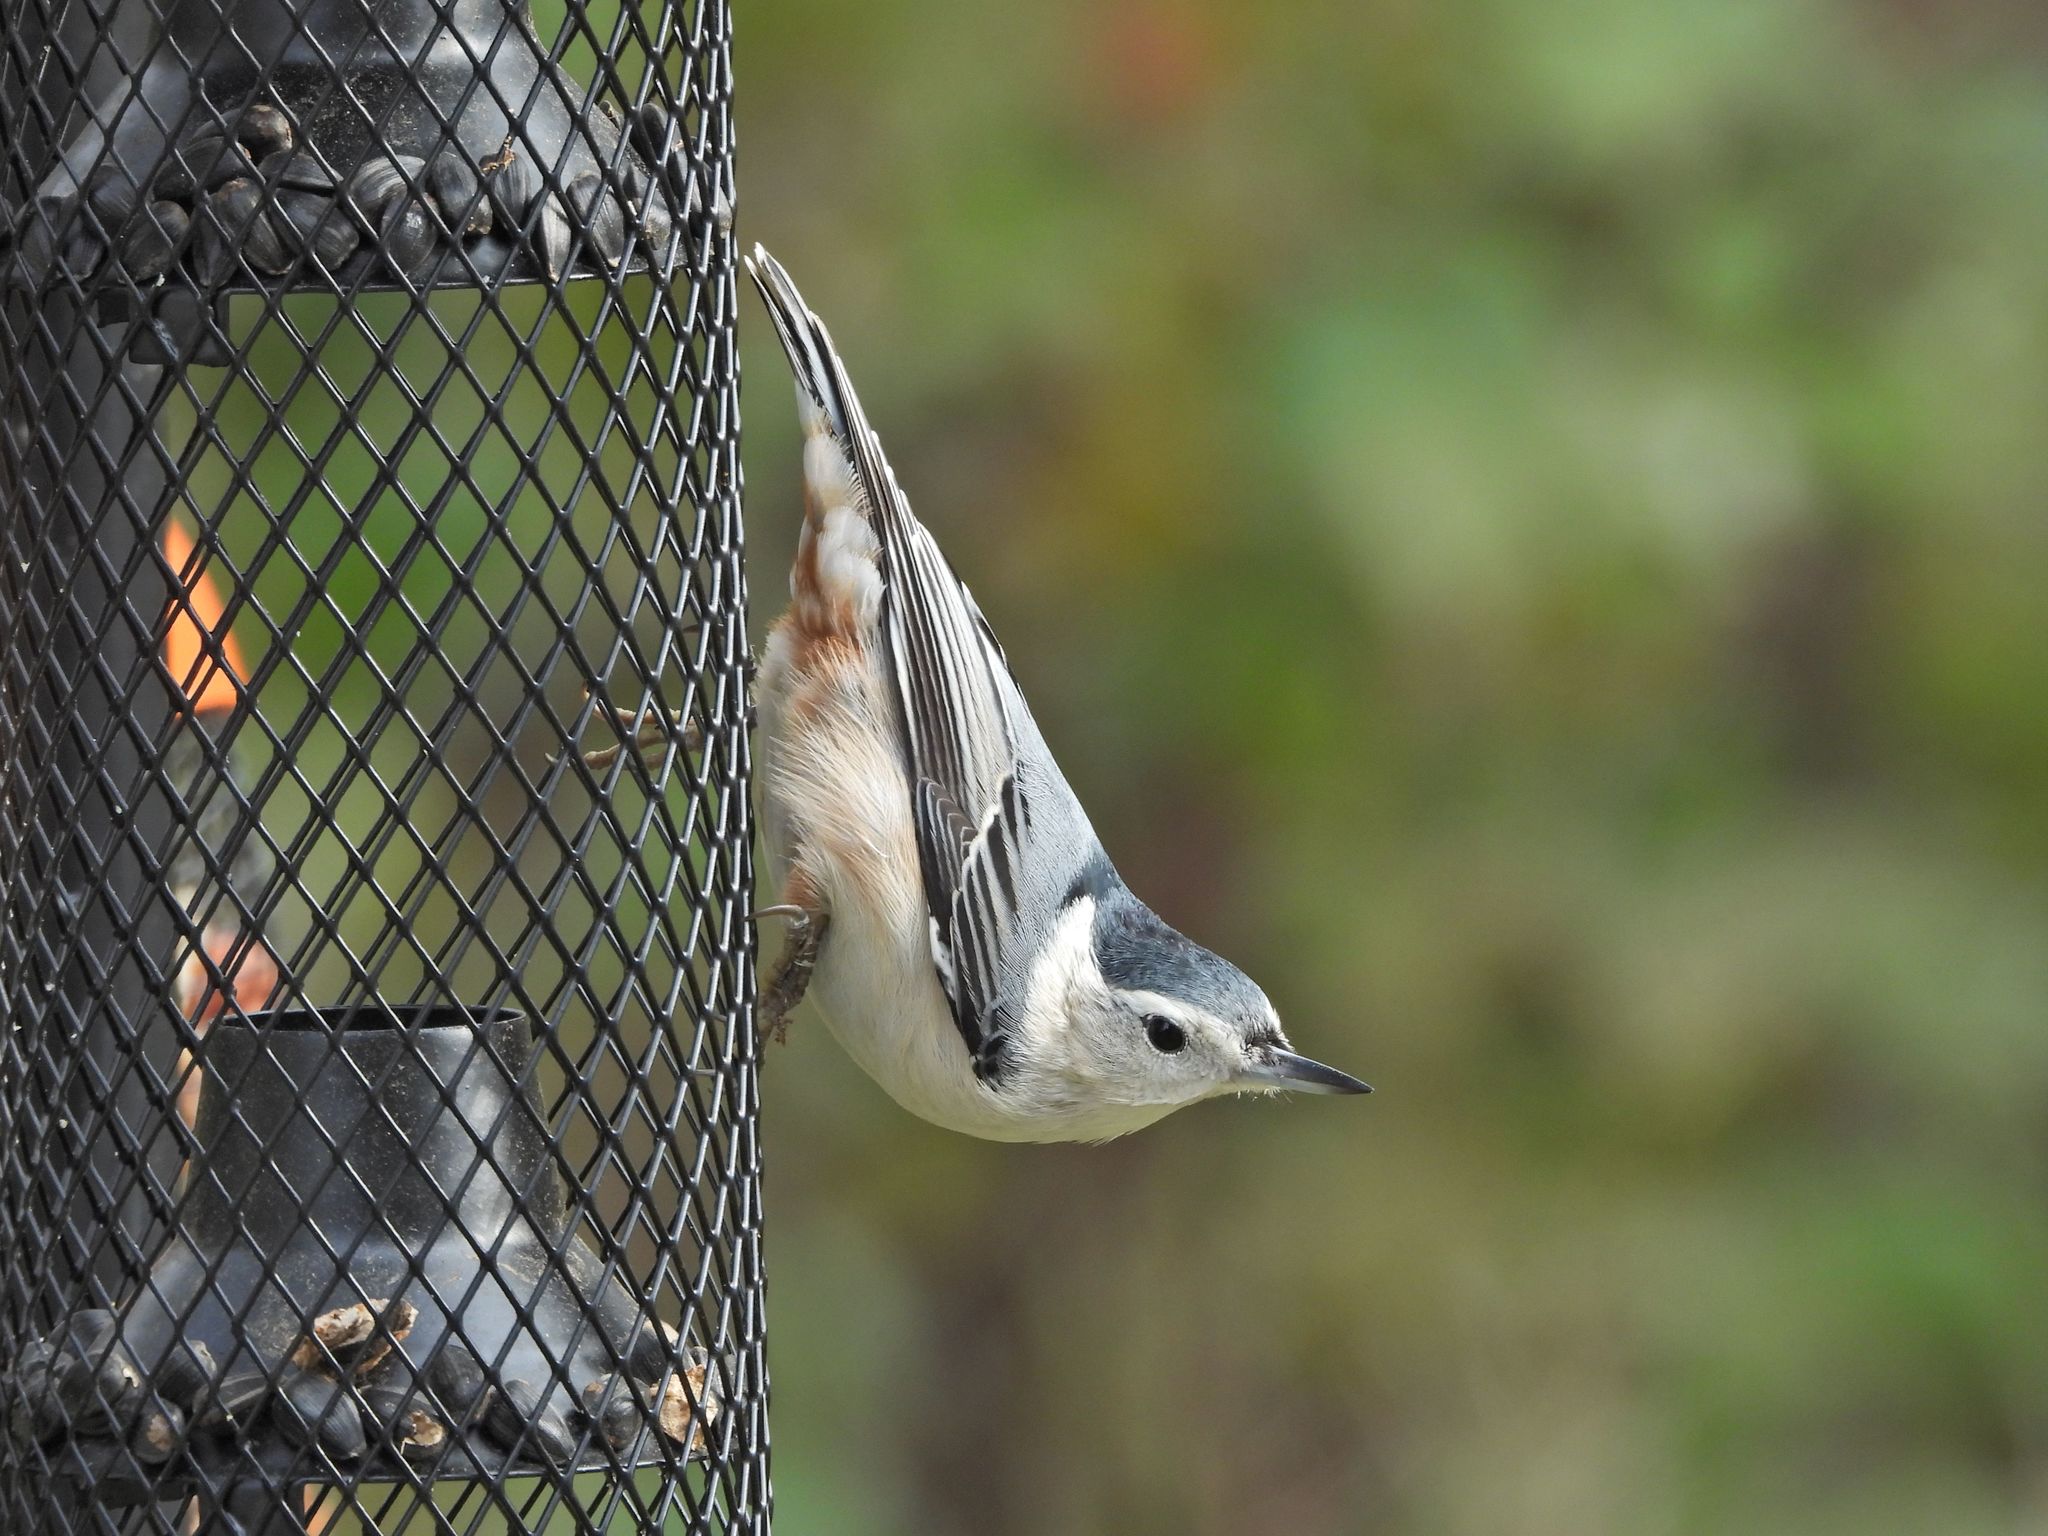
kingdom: Animalia
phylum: Chordata
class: Aves
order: Passeriformes
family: Sittidae
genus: Sitta
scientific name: Sitta carolinensis
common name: White-breasted nuthatch
